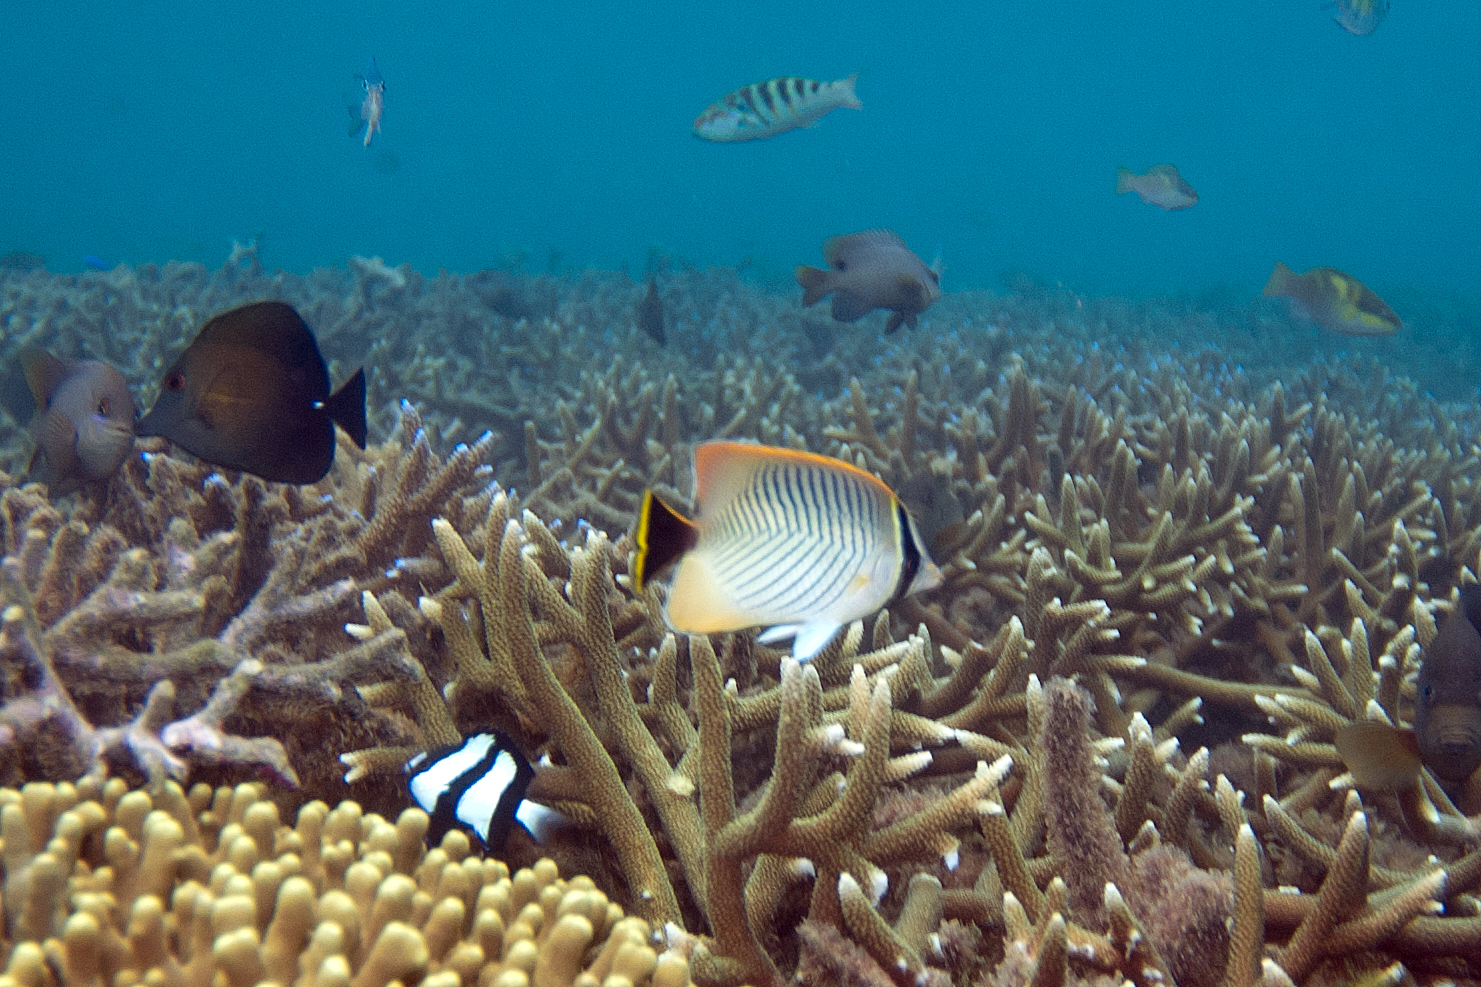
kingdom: Animalia
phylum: Chordata
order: Perciformes
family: Chaetodontidae
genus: Chaetodon
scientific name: Chaetodon trifascialis
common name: Chevroned butterflyfish
